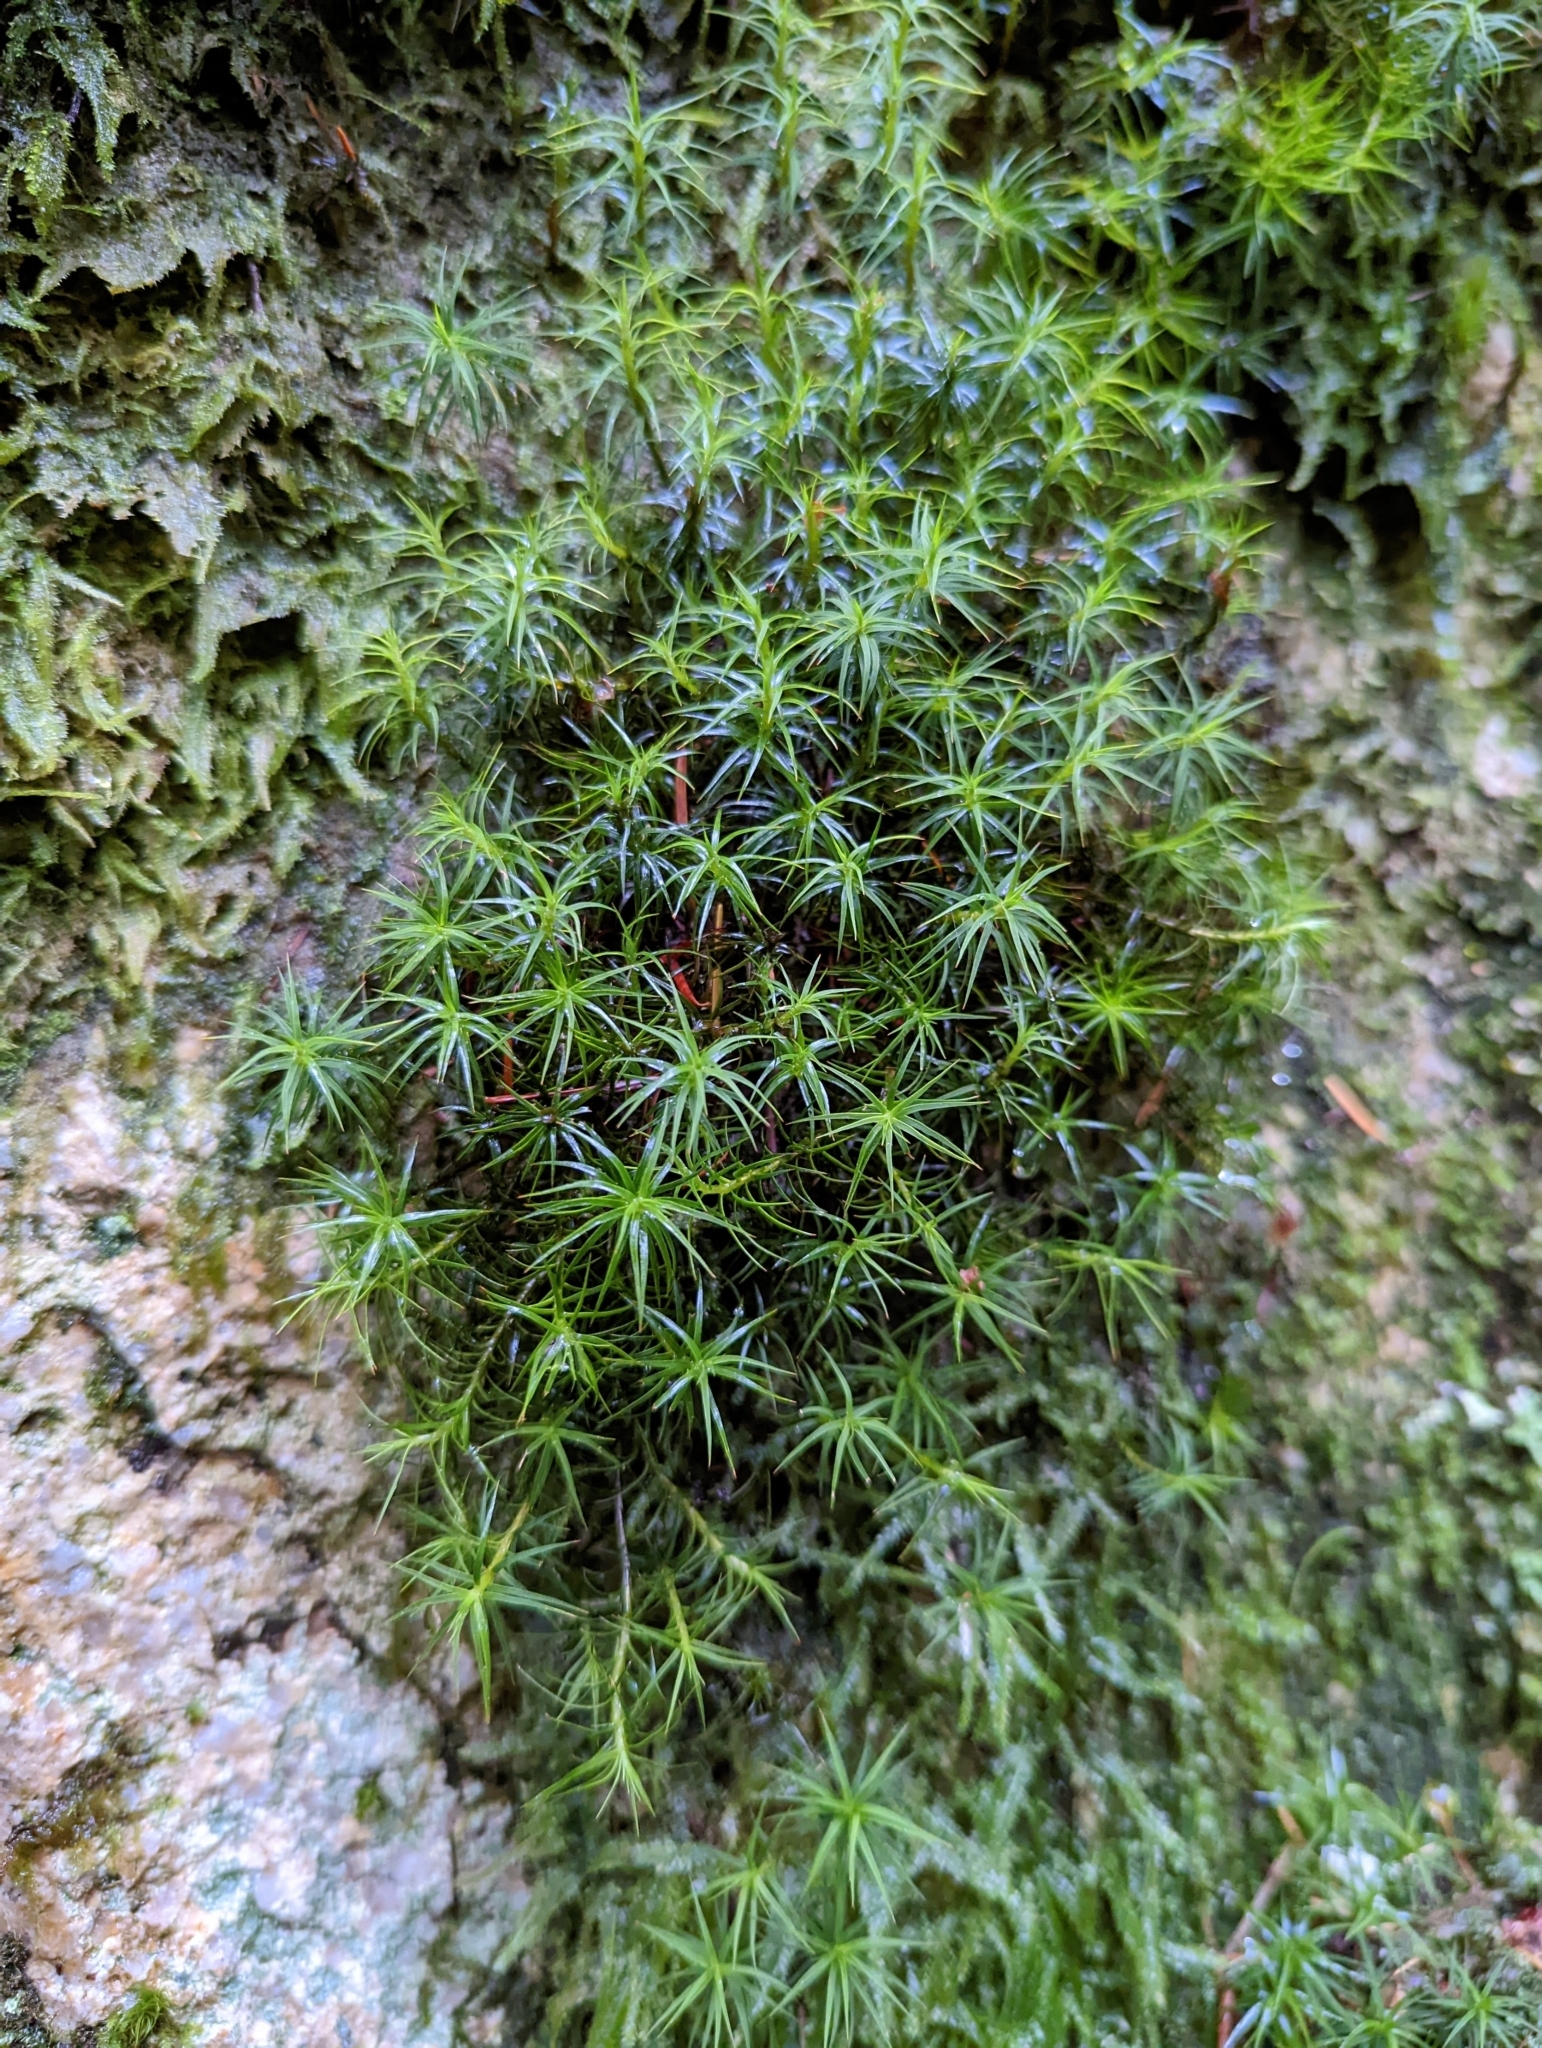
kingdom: Plantae
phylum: Bryophyta
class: Polytrichopsida
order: Polytrichales
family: Polytrichaceae
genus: Polytrichastrum
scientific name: Polytrichastrum alpinum
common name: Alpine haircap
